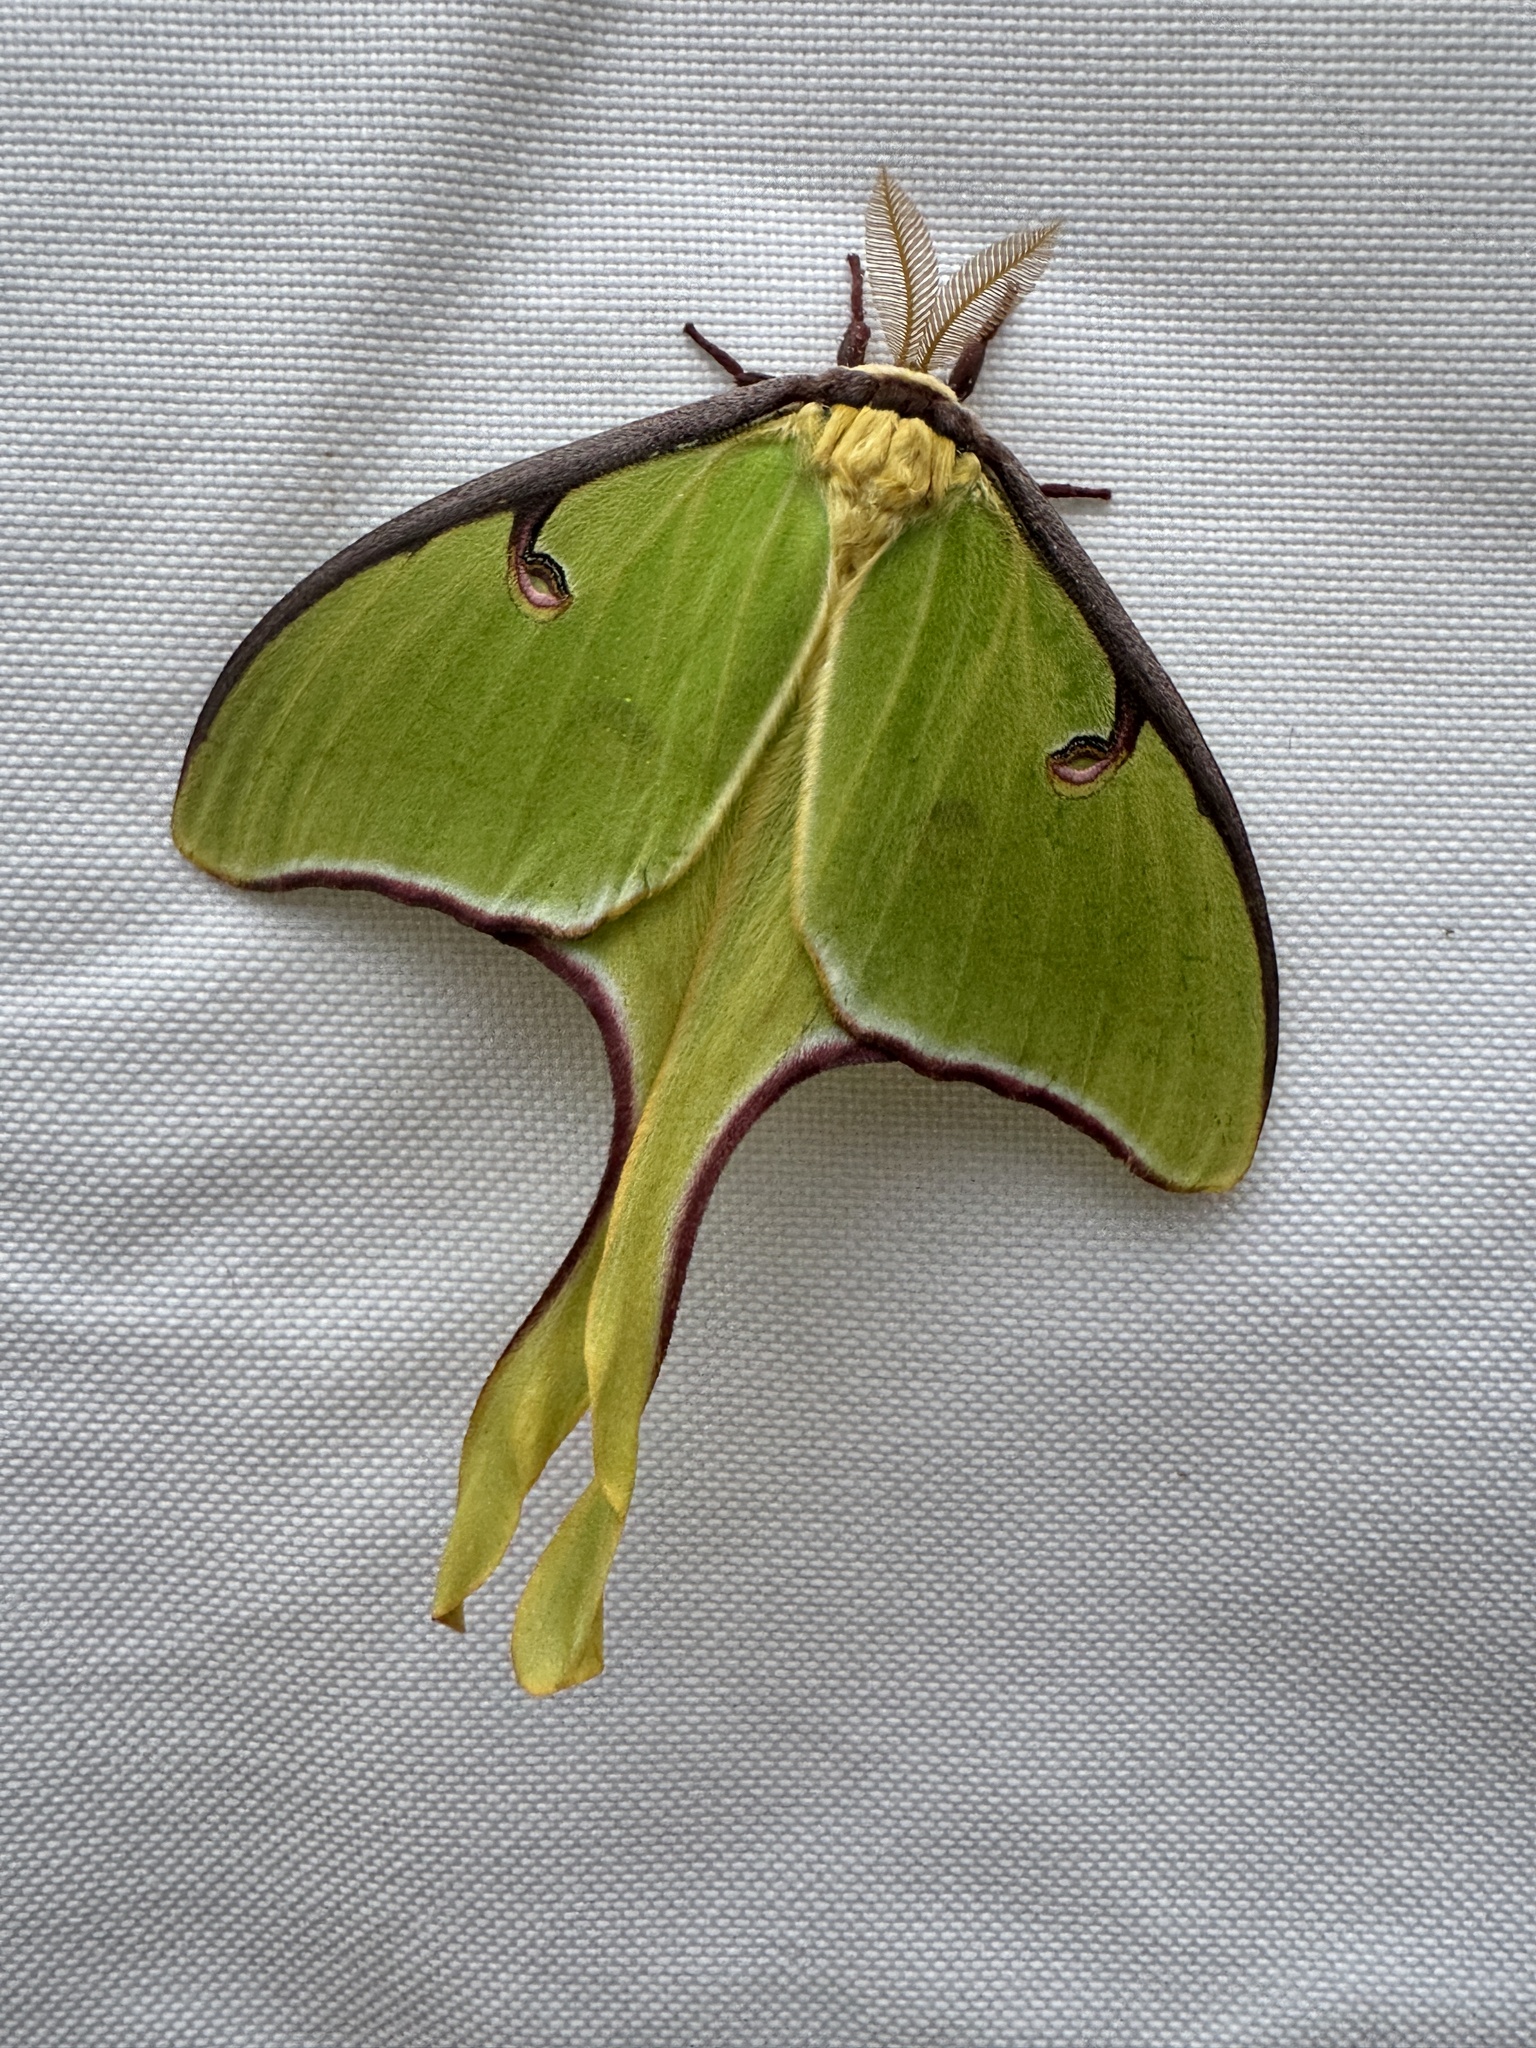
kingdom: Animalia
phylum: Arthropoda
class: Insecta
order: Lepidoptera
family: Saturniidae
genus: Actias
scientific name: Actias luna
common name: Luna moth
